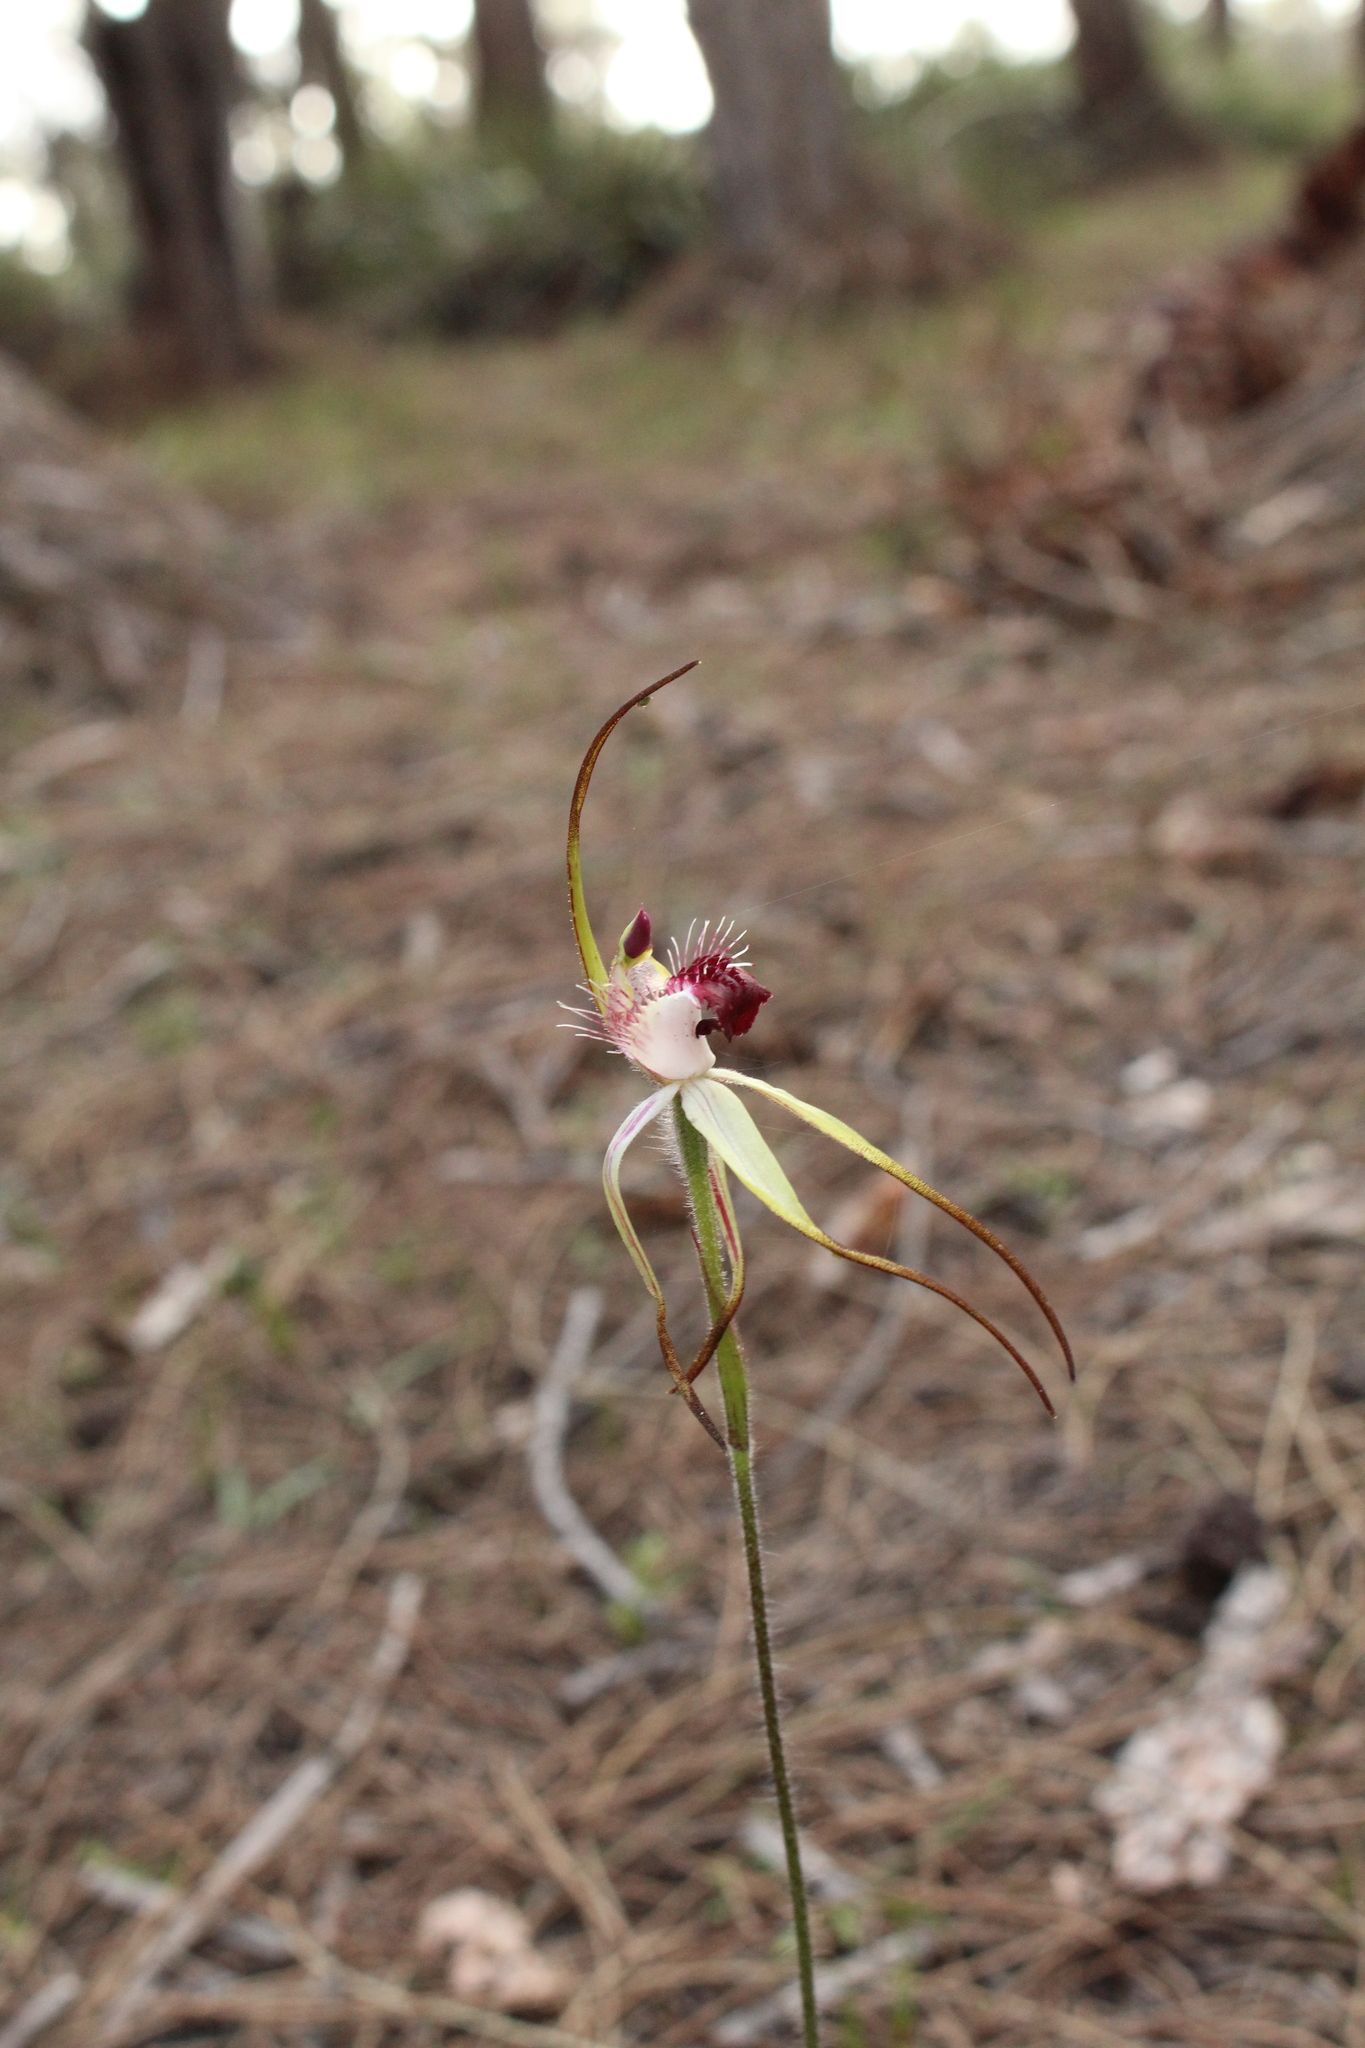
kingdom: Plantae
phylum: Tracheophyta
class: Liliopsida
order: Asparagales
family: Orchidaceae
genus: Caladenia
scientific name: Caladenia heberleana
